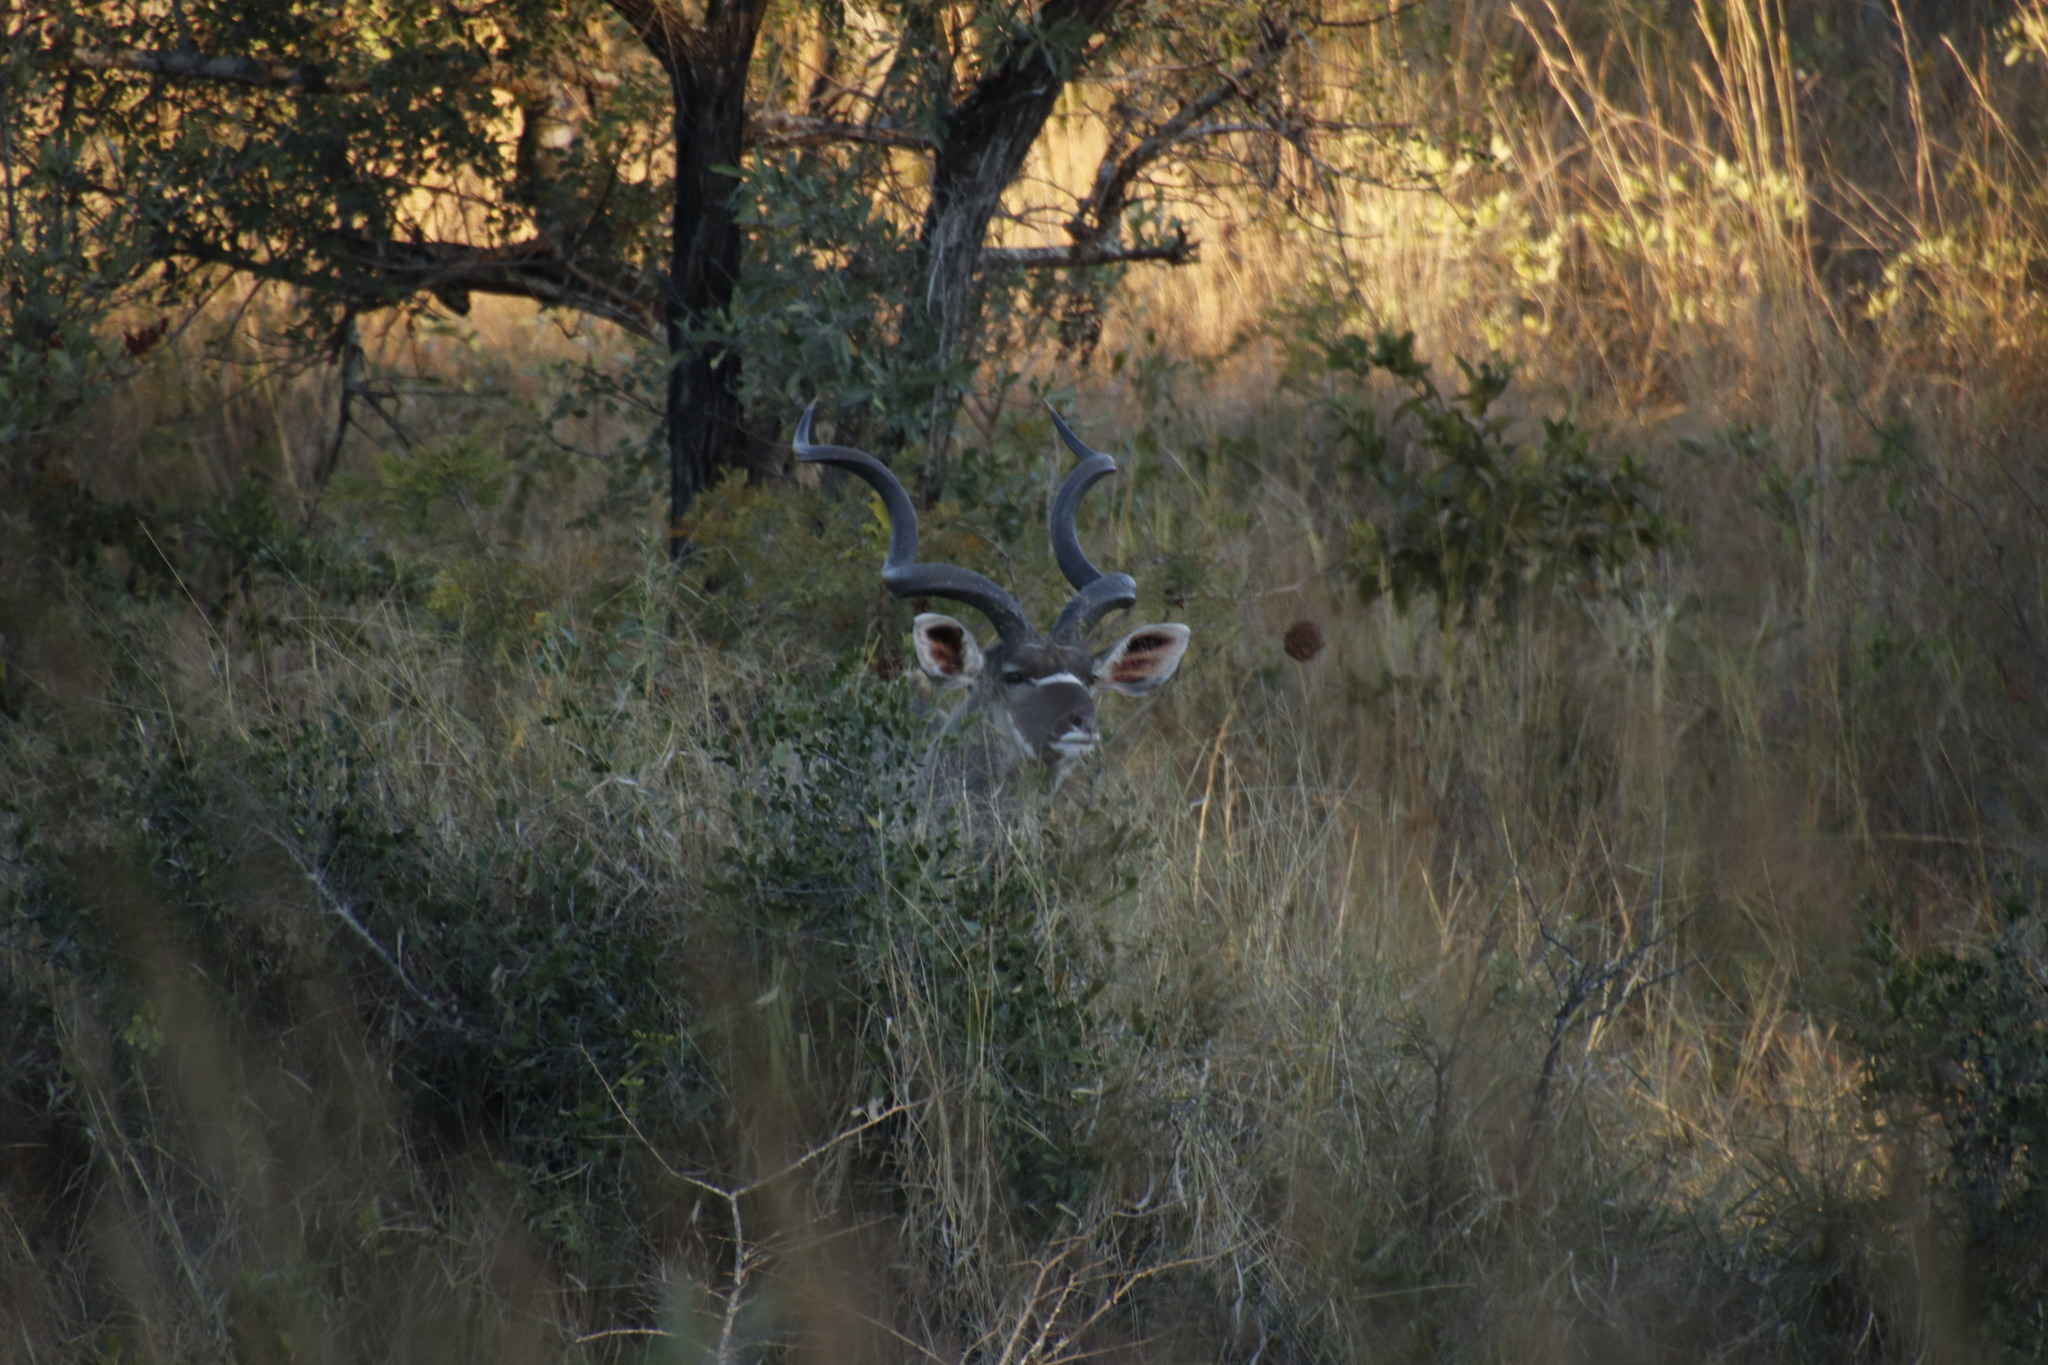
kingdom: Animalia
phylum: Chordata
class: Mammalia
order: Artiodactyla
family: Bovidae
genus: Tragelaphus
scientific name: Tragelaphus strepsiceros
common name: Greater kudu
